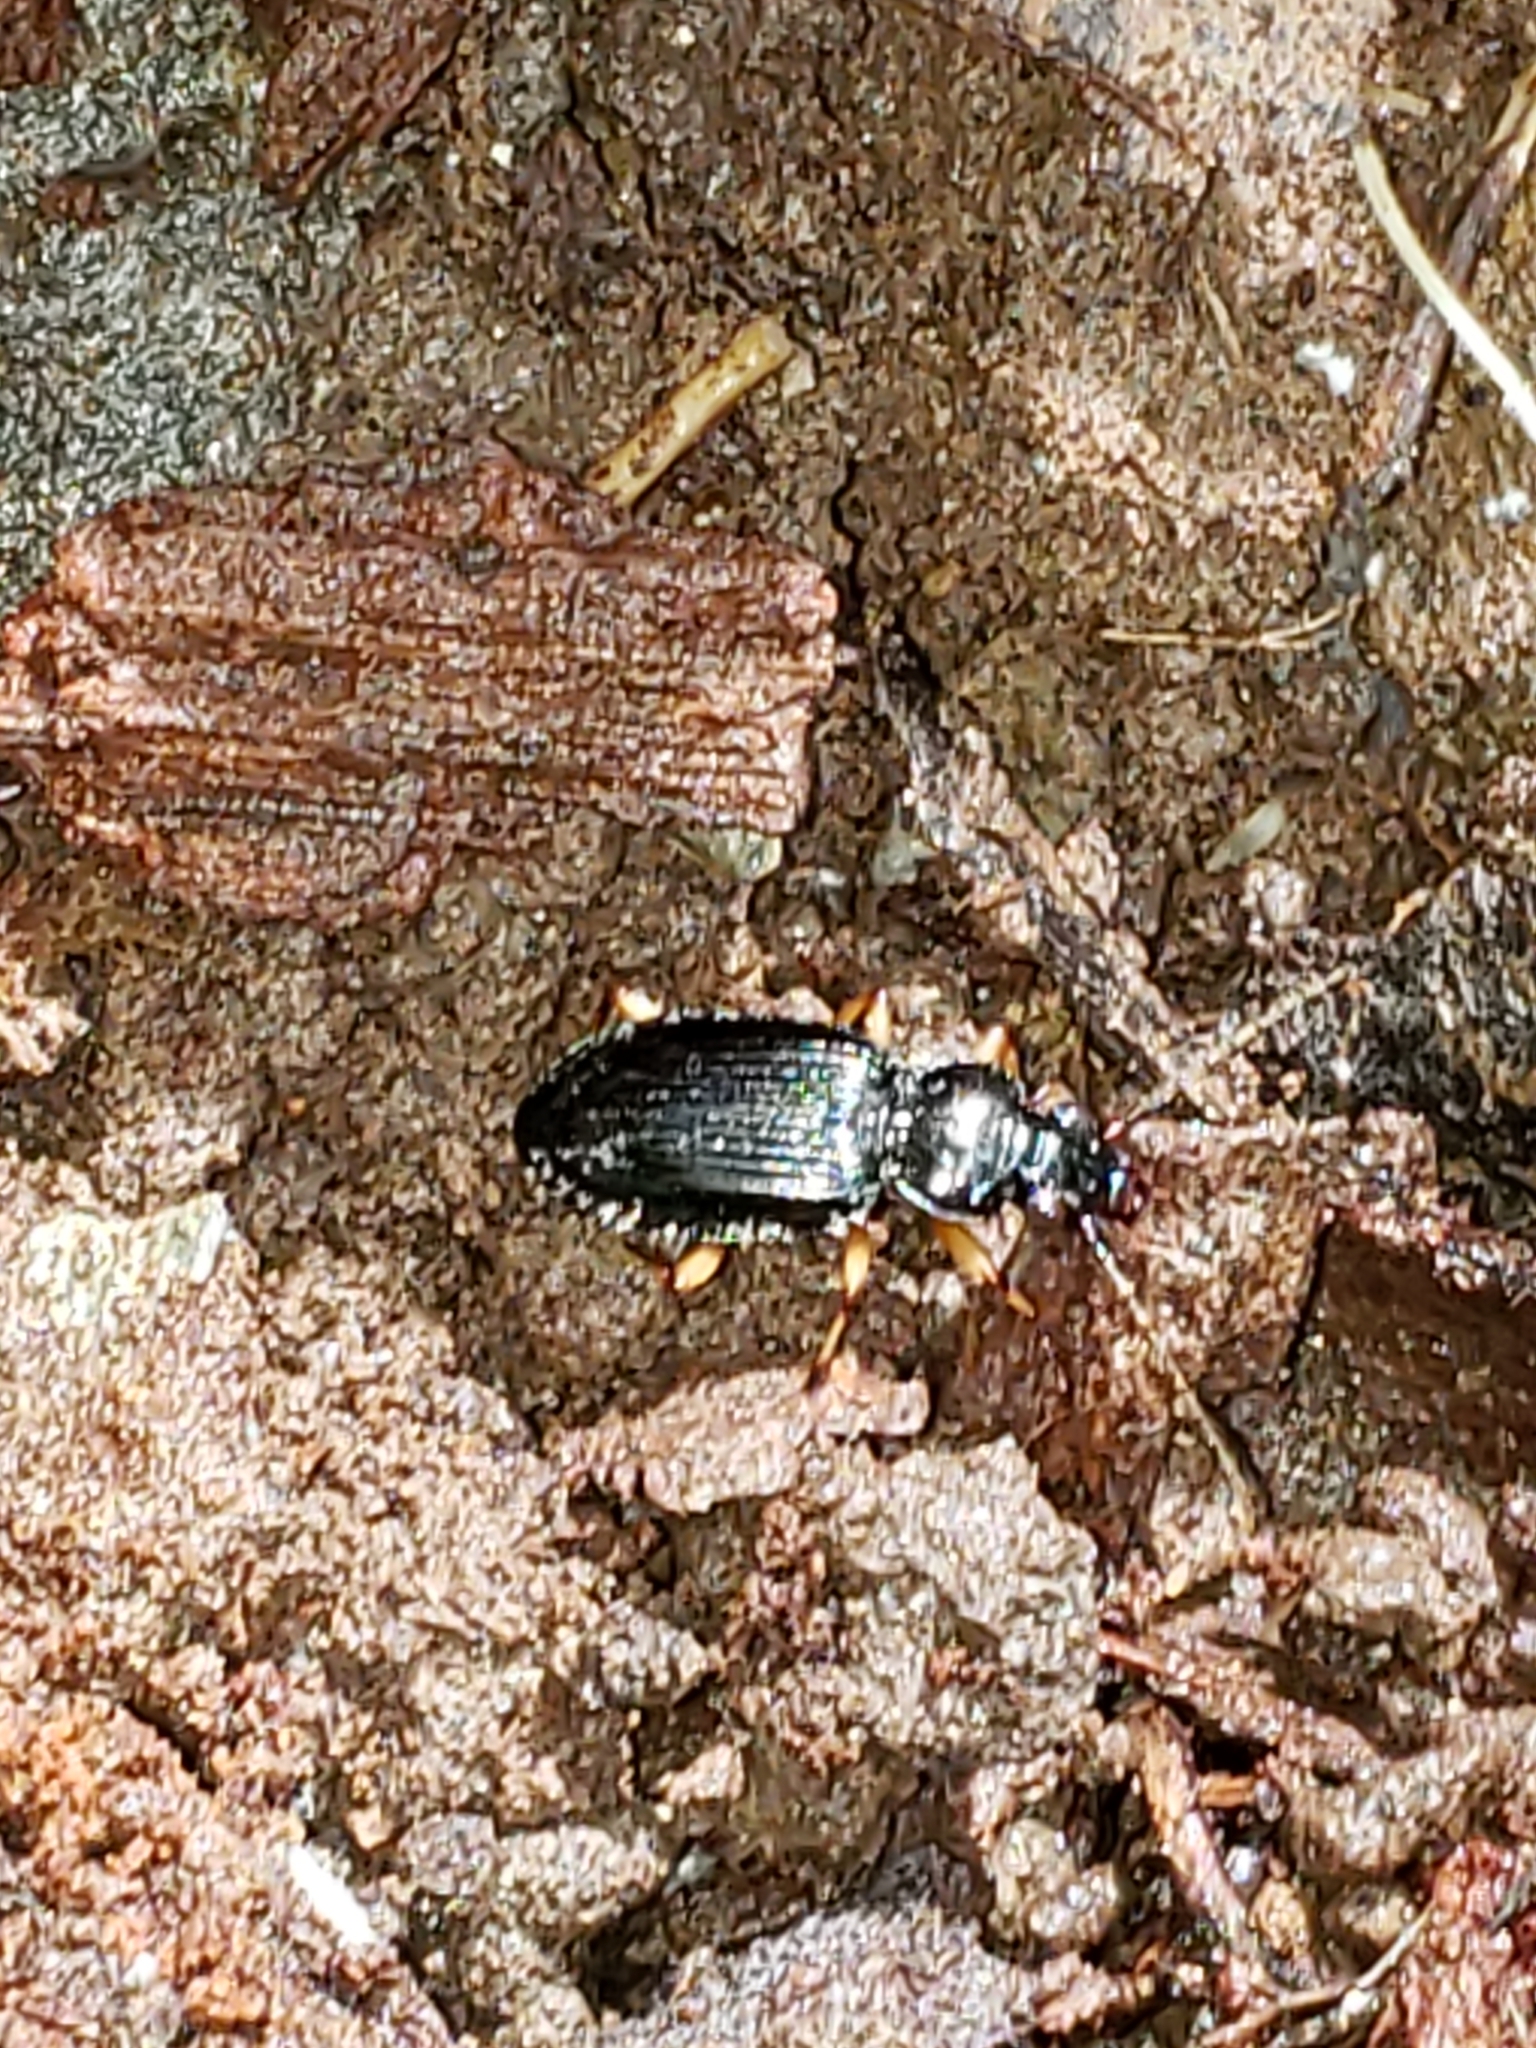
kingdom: Animalia
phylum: Arthropoda
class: Insecta
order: Coleoptera
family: Carabidae
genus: Patrobus
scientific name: Patrobus longicornis
